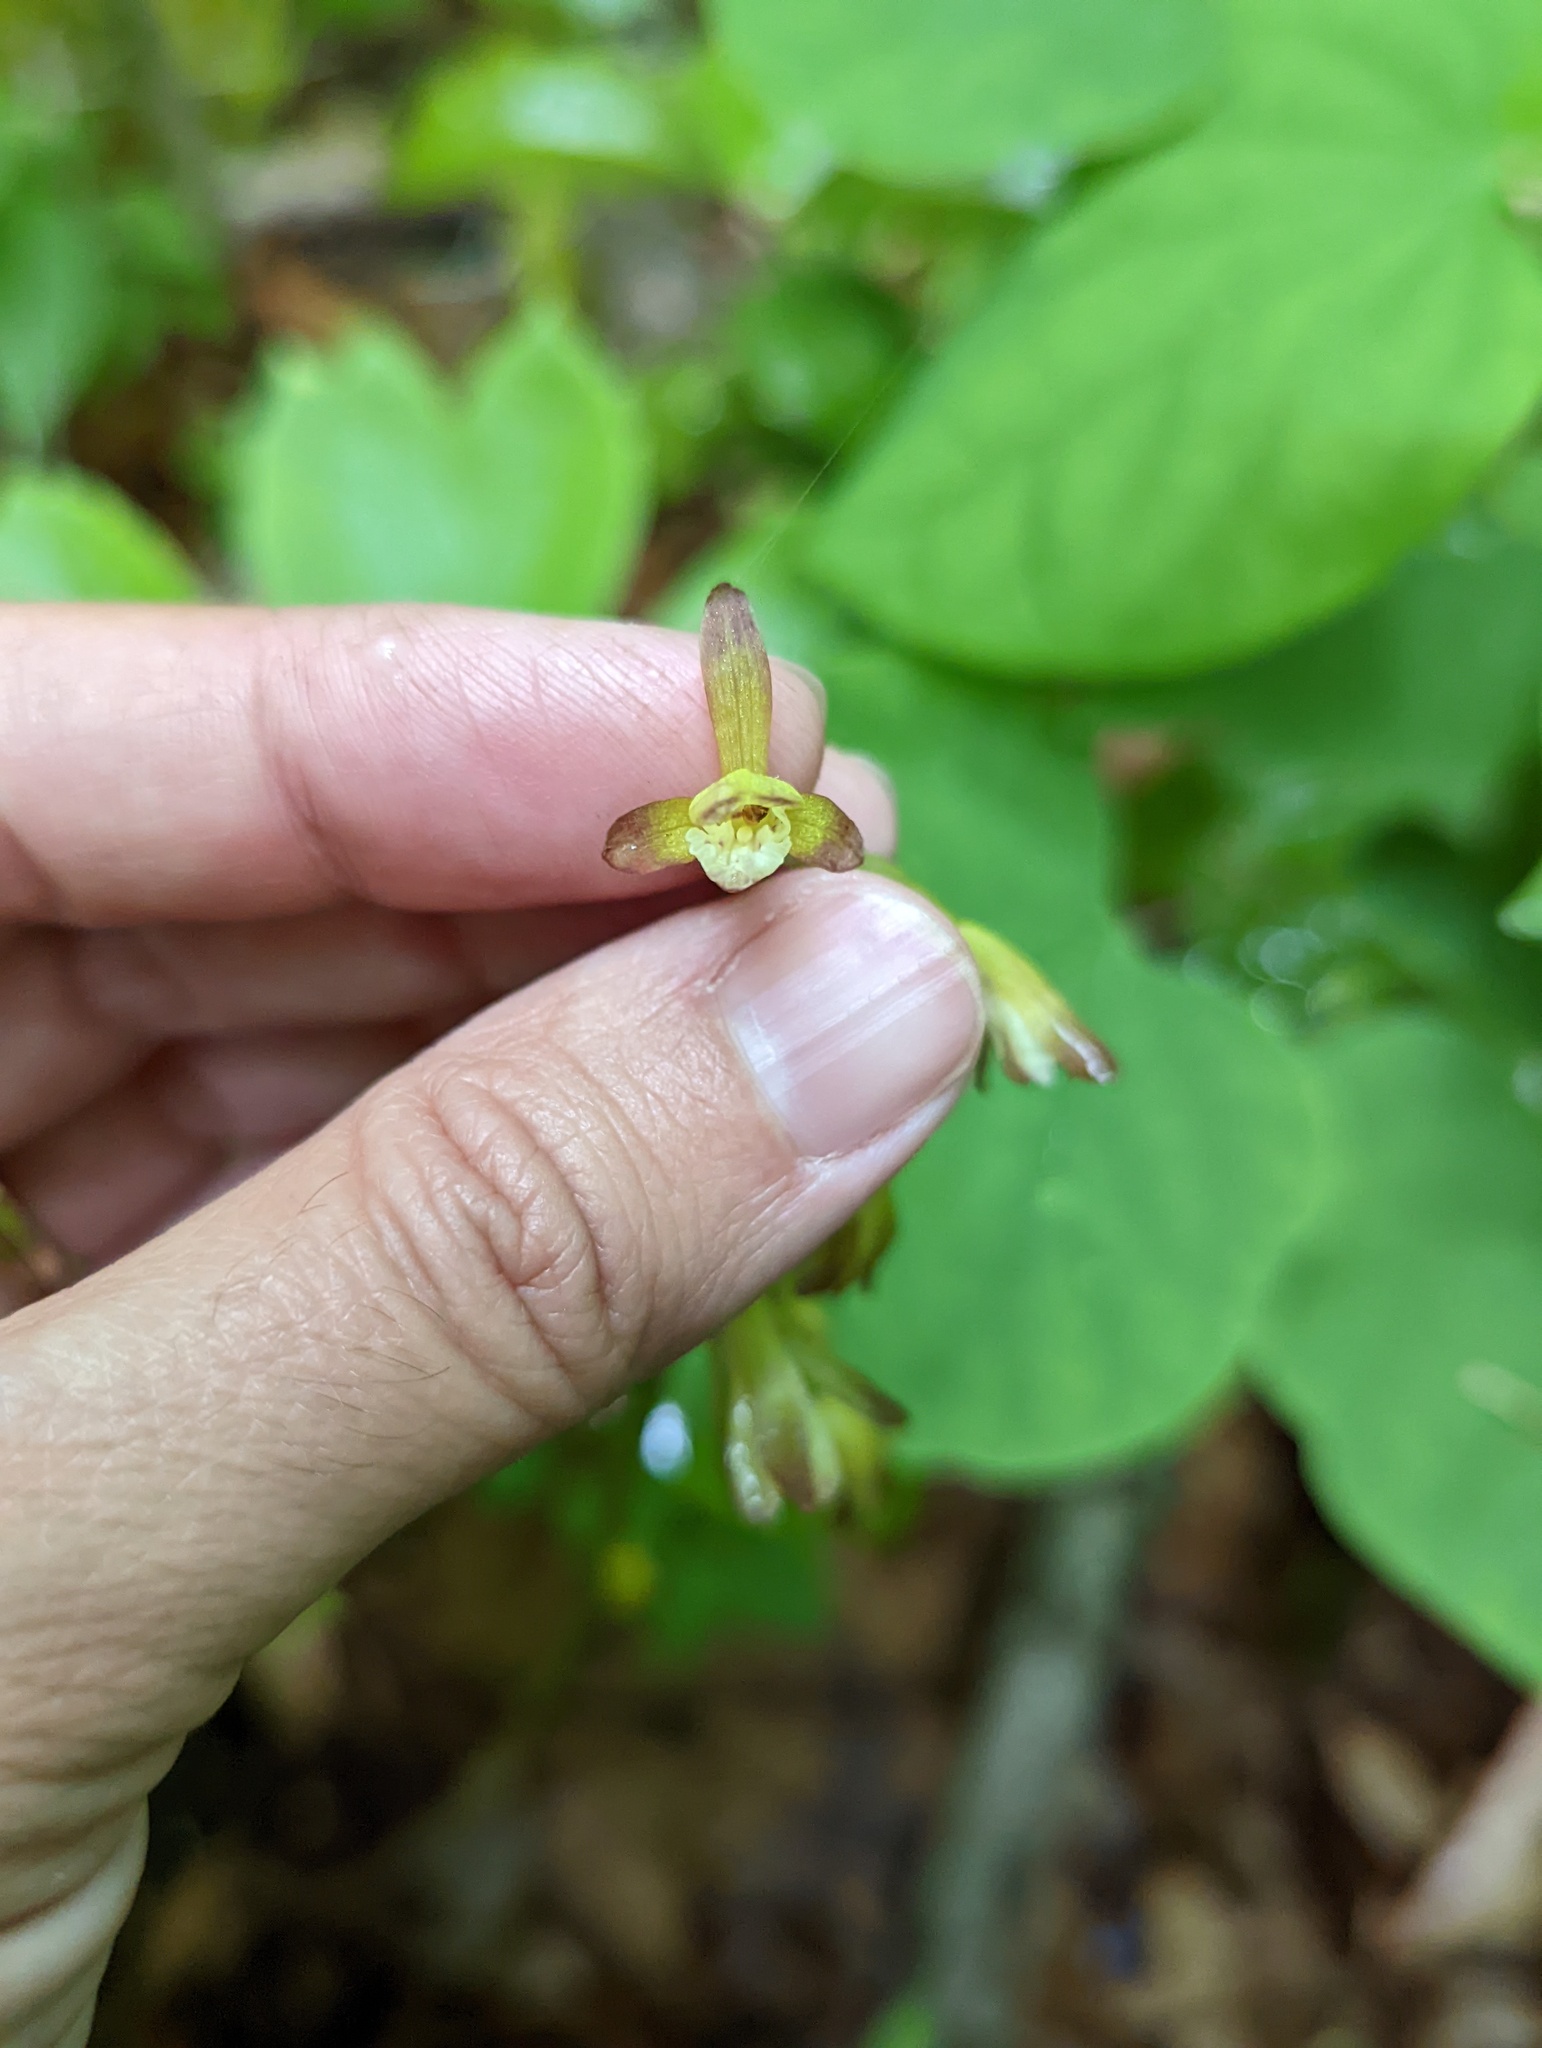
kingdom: Plantae
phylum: Tracheophyta
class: Liliopsida
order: Asparagales
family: Orchidaceae
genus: Aplectrum
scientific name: Aplectrum hyemale
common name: Adam-and-eve
